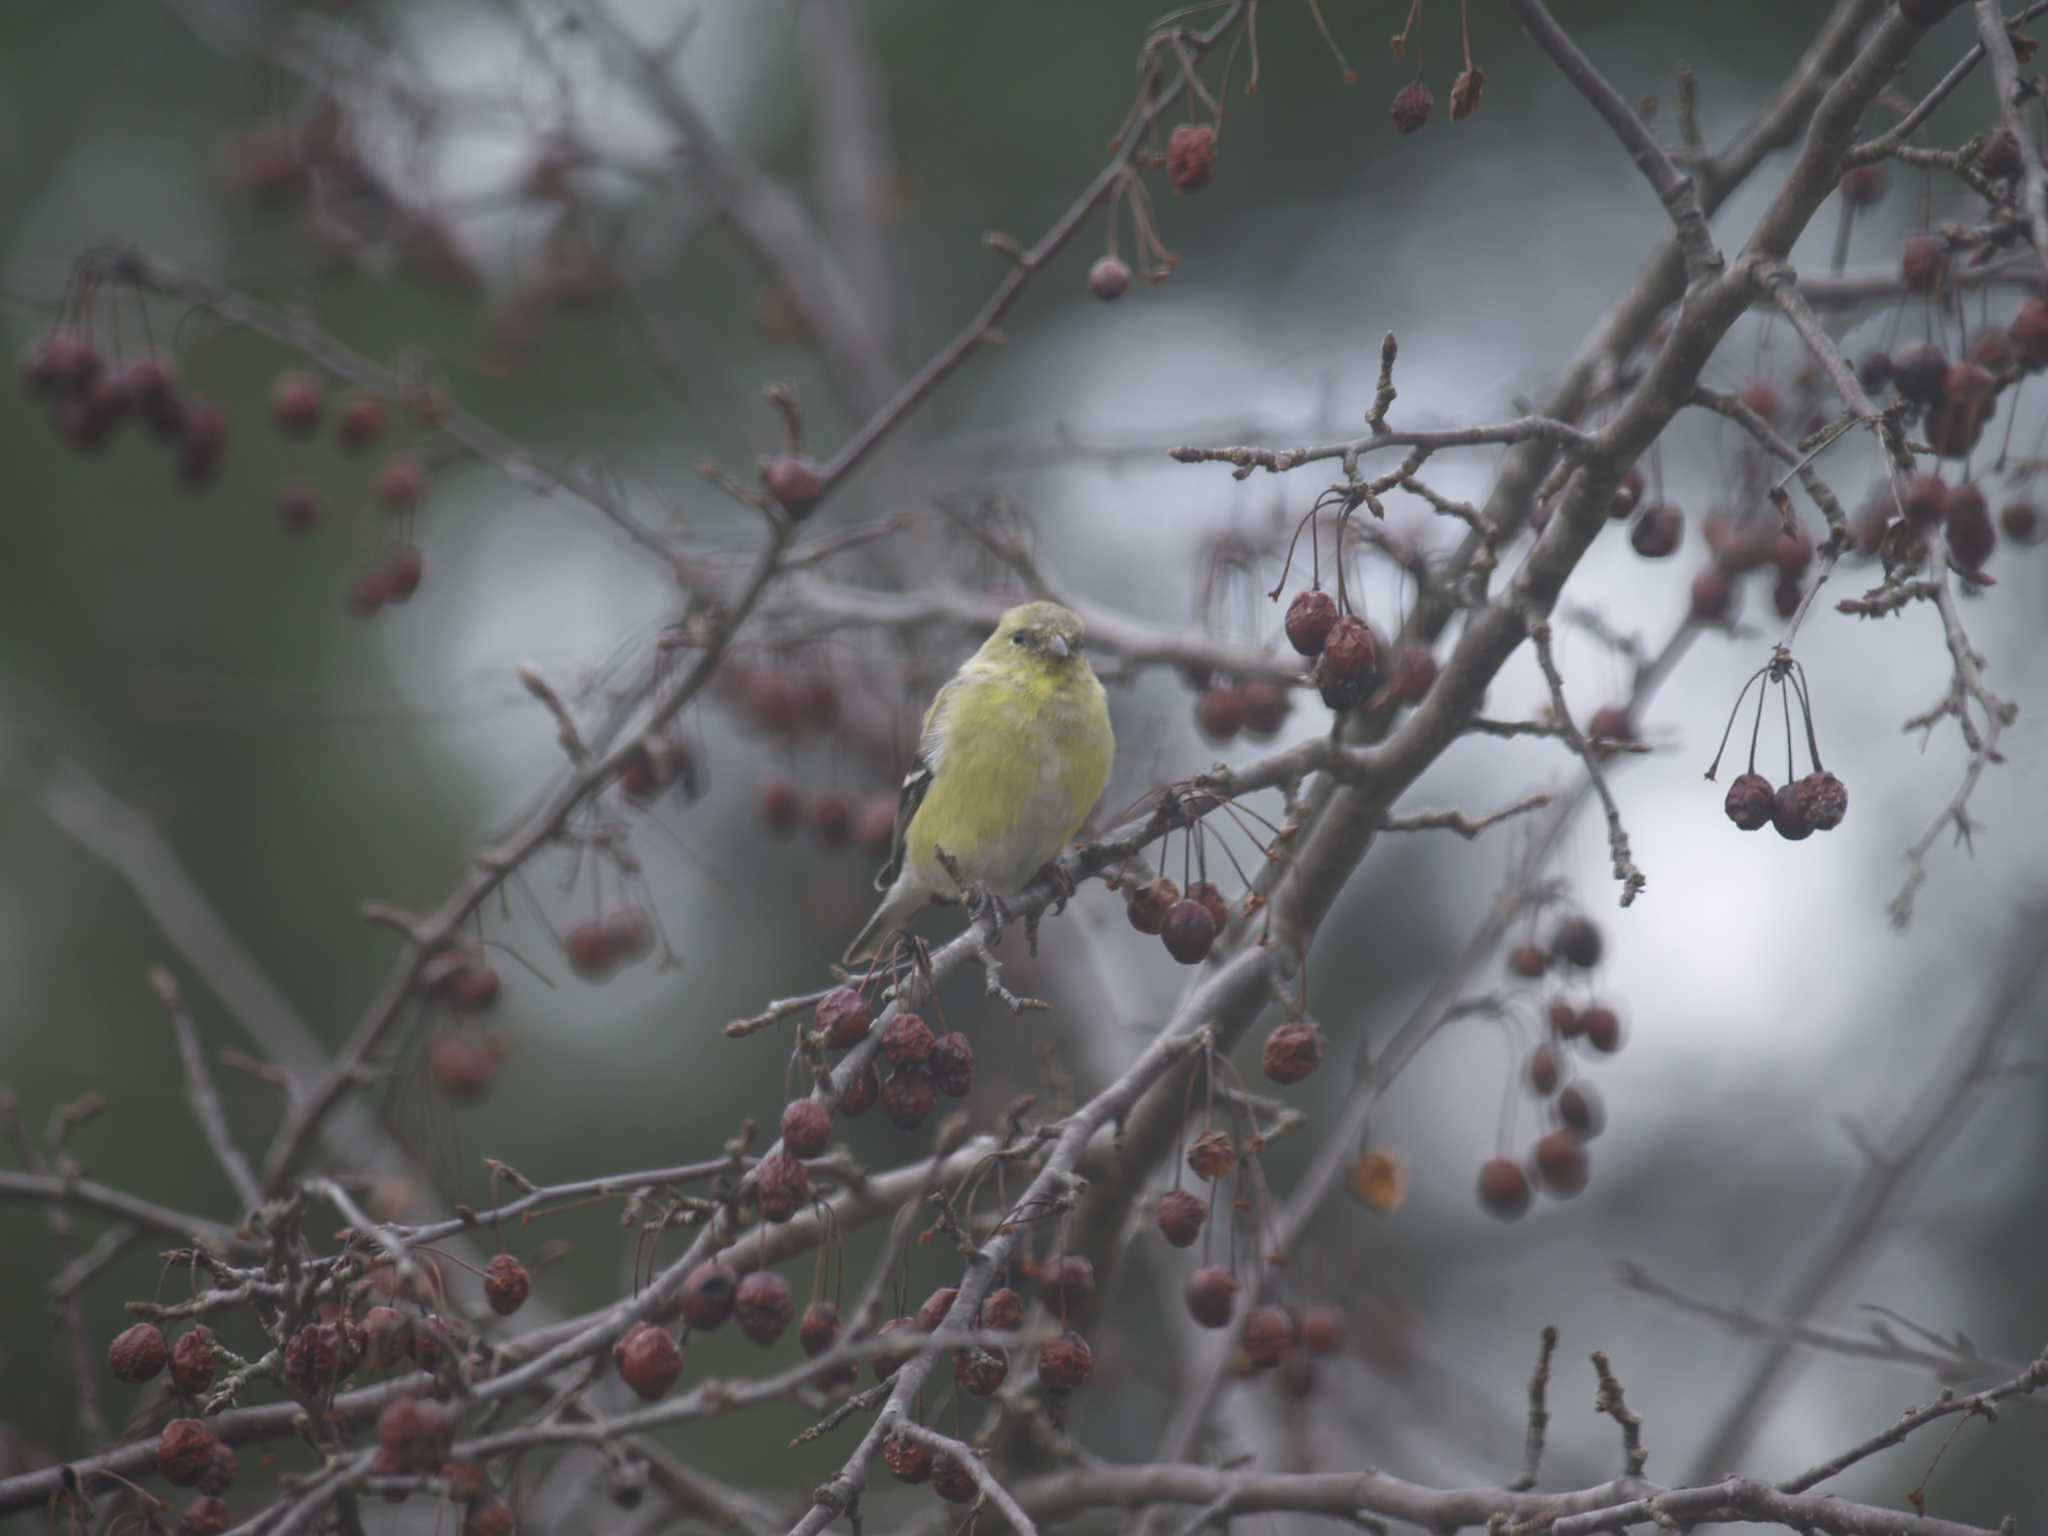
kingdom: Animalia
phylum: Chordata
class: Aves
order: Passeriformes
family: Fringillidae
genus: Spinus
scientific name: Spinus tristis
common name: American goldfinch
